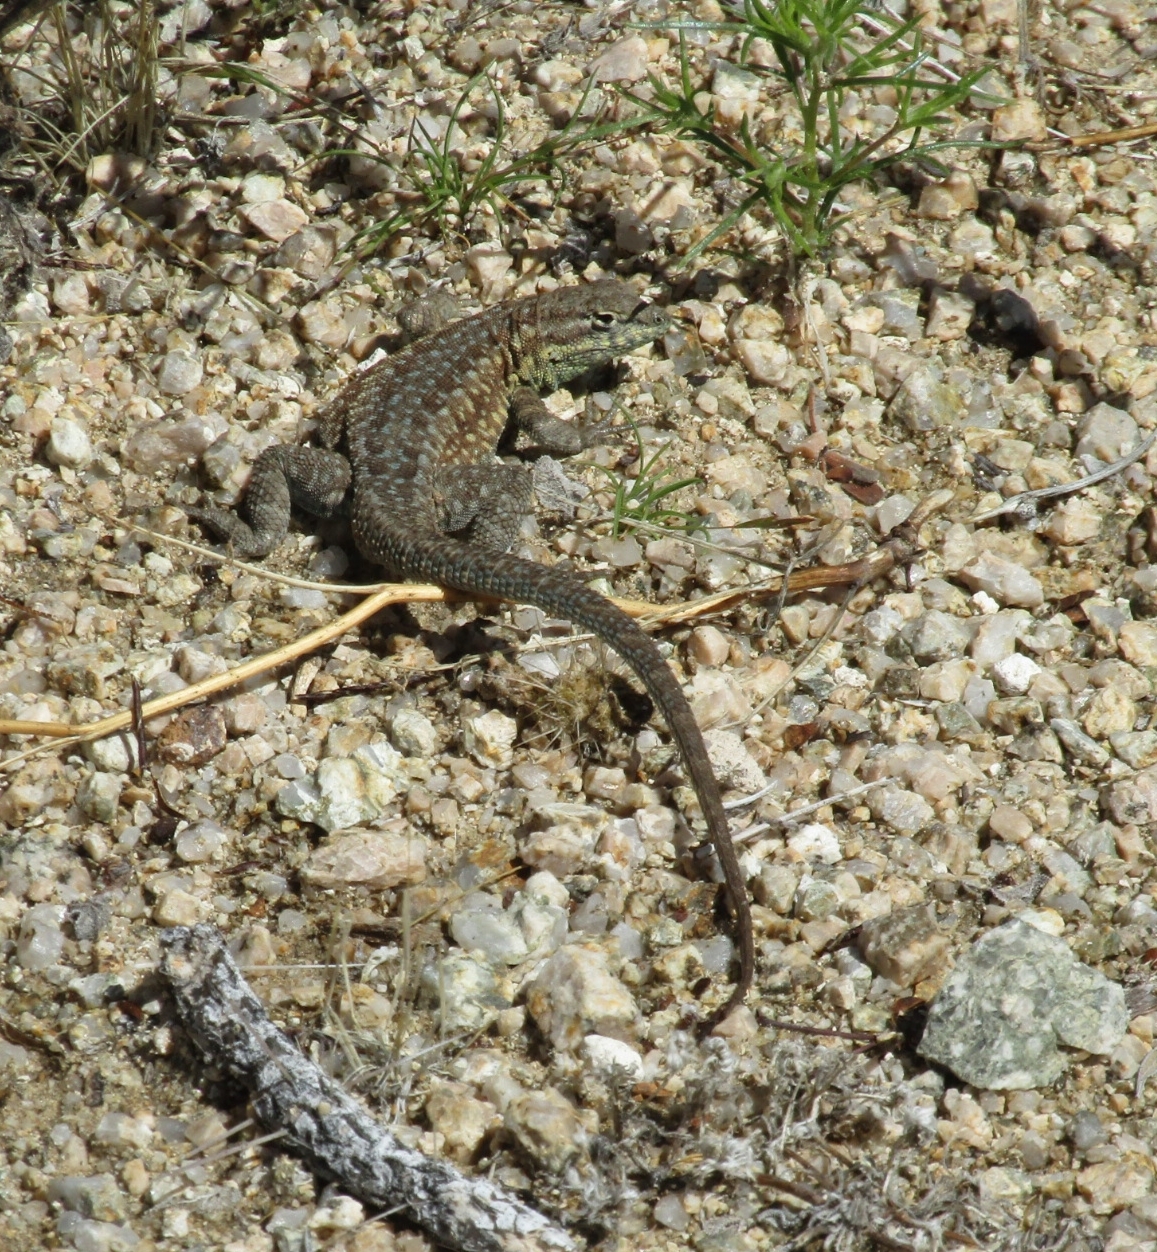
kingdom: Animalia
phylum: Chordata
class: Squamata
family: Phrynosomatidae
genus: Uta
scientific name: Uta stansburiana
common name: Side-blotched lizard
